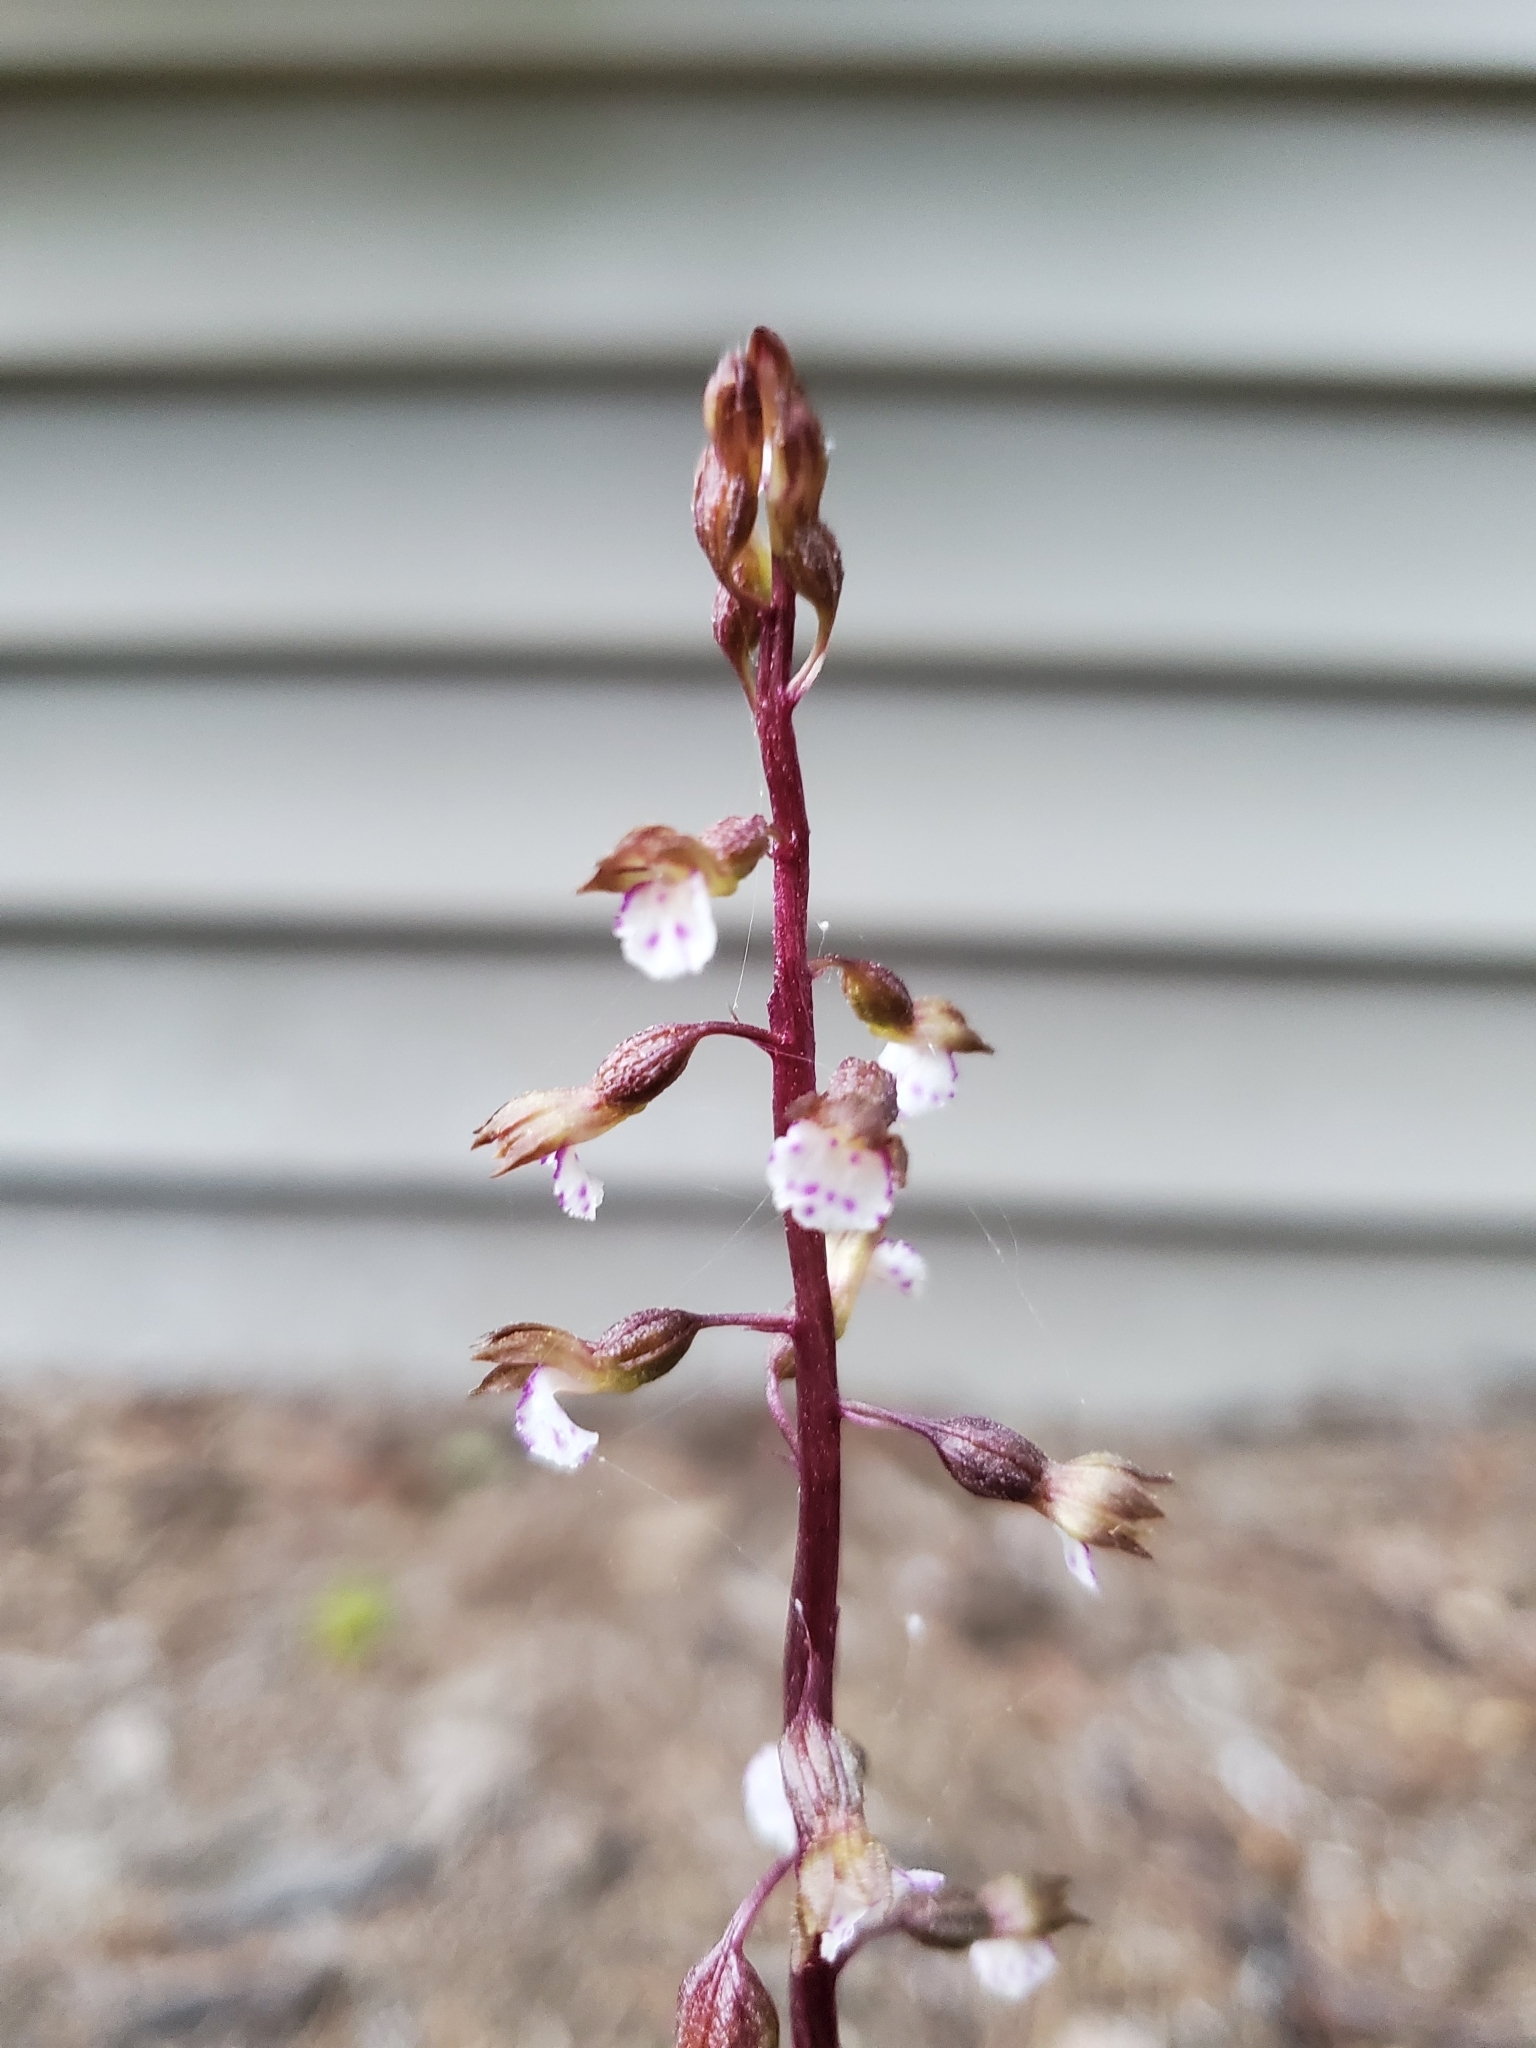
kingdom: Plantae
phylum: Tracheophyta
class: Liliopsida
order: Asparagales
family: Orchidaceae
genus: Corallorhiza
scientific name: Corallorhiza odontorhiza
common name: Autumn coralroot
